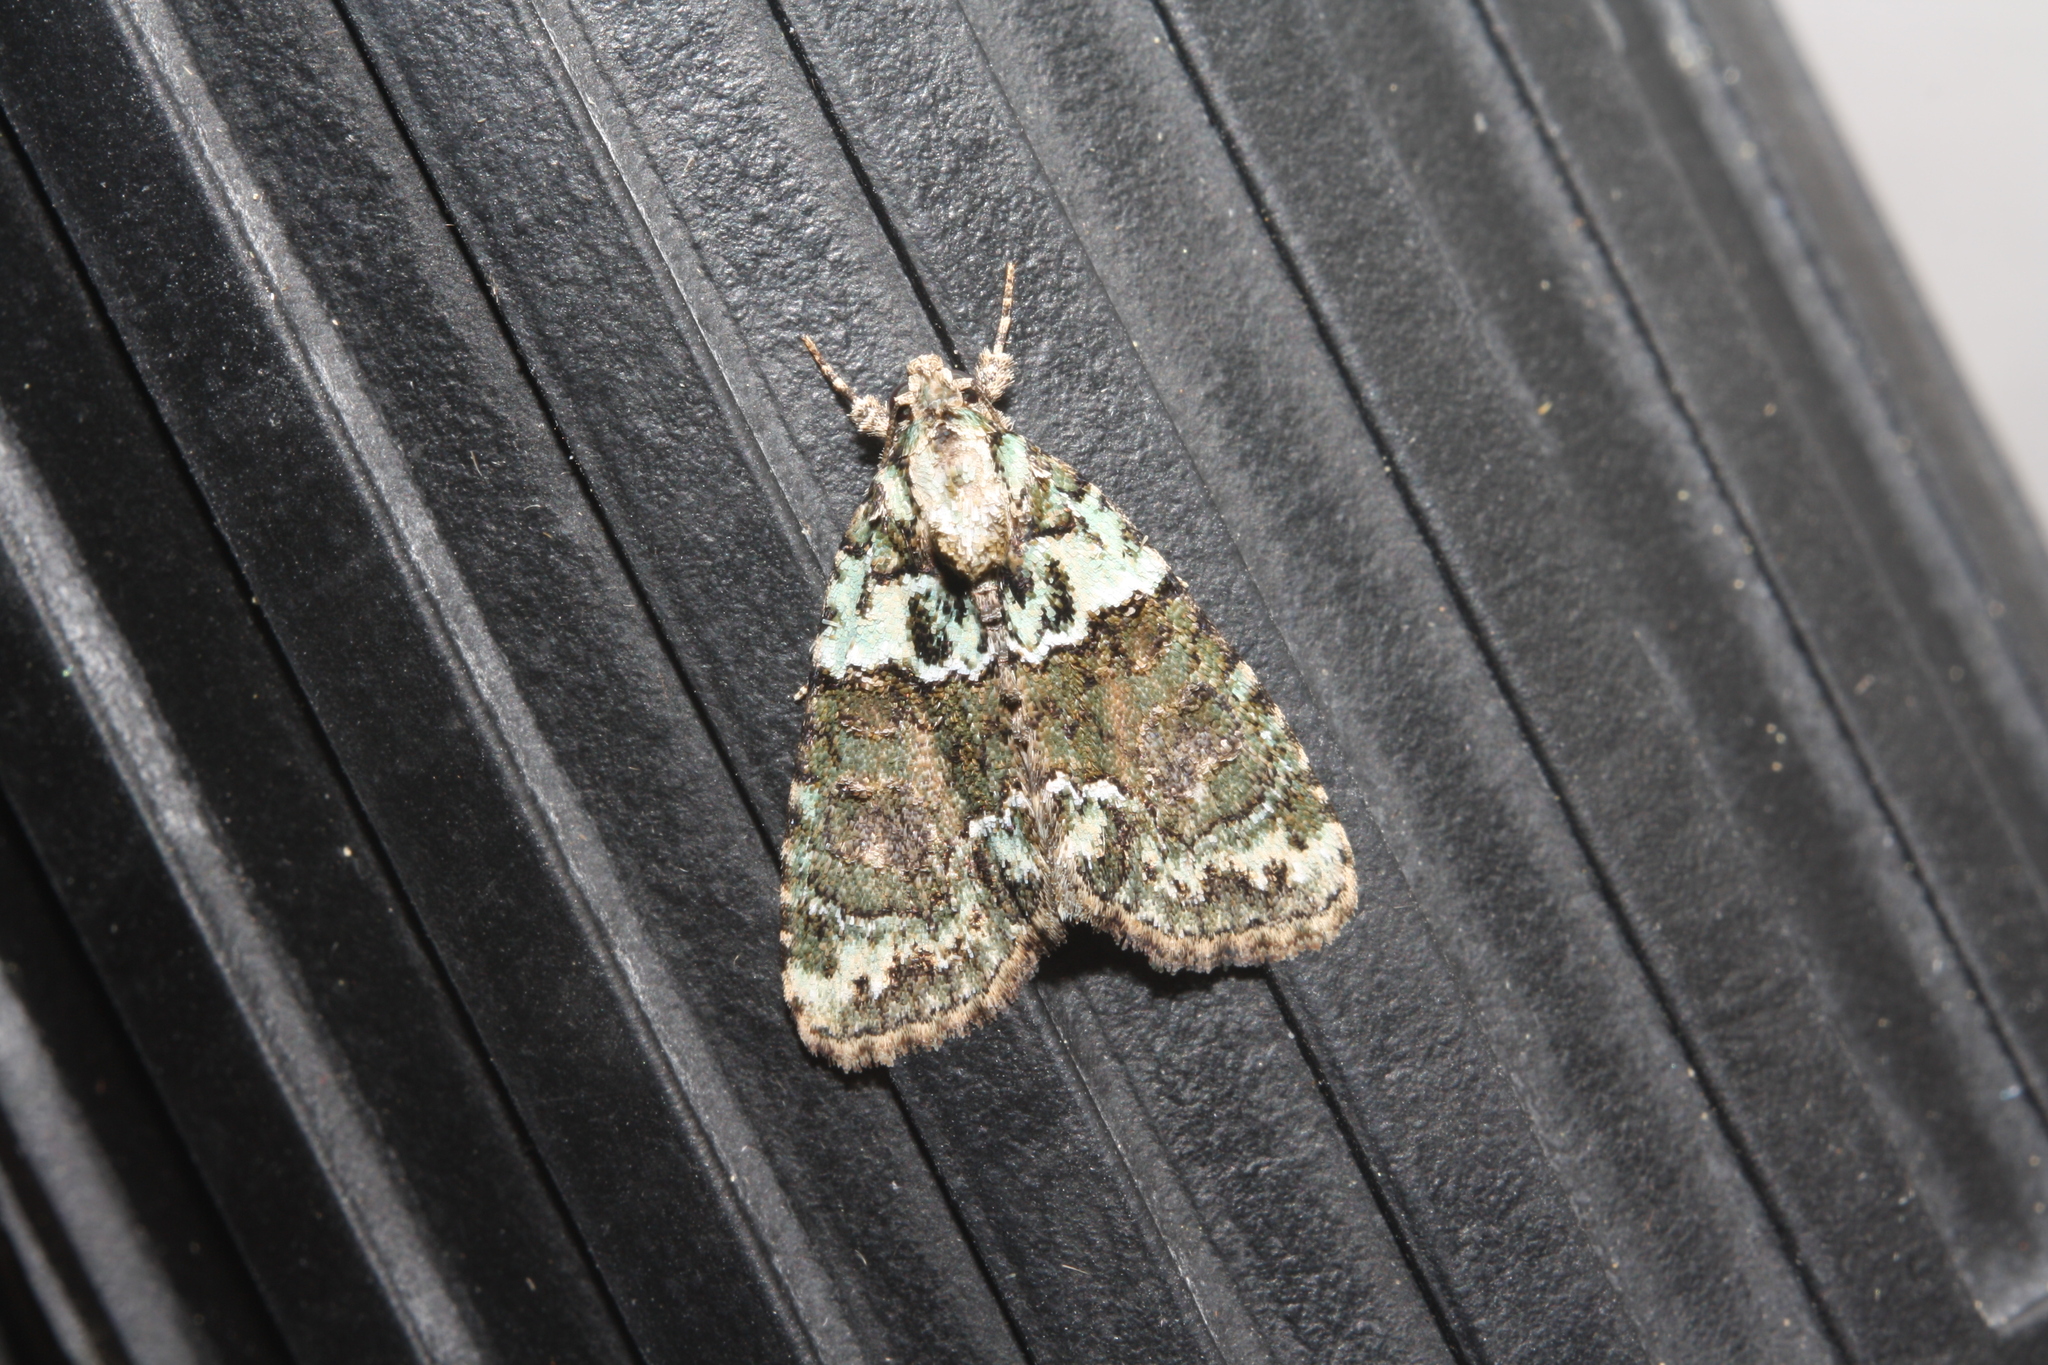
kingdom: Animalia
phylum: Arthropoda
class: Insecta
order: Lepidoptera
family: Noctuidae
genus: Cryphia
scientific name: Cryphia algae
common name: Tree-lichen beauty
